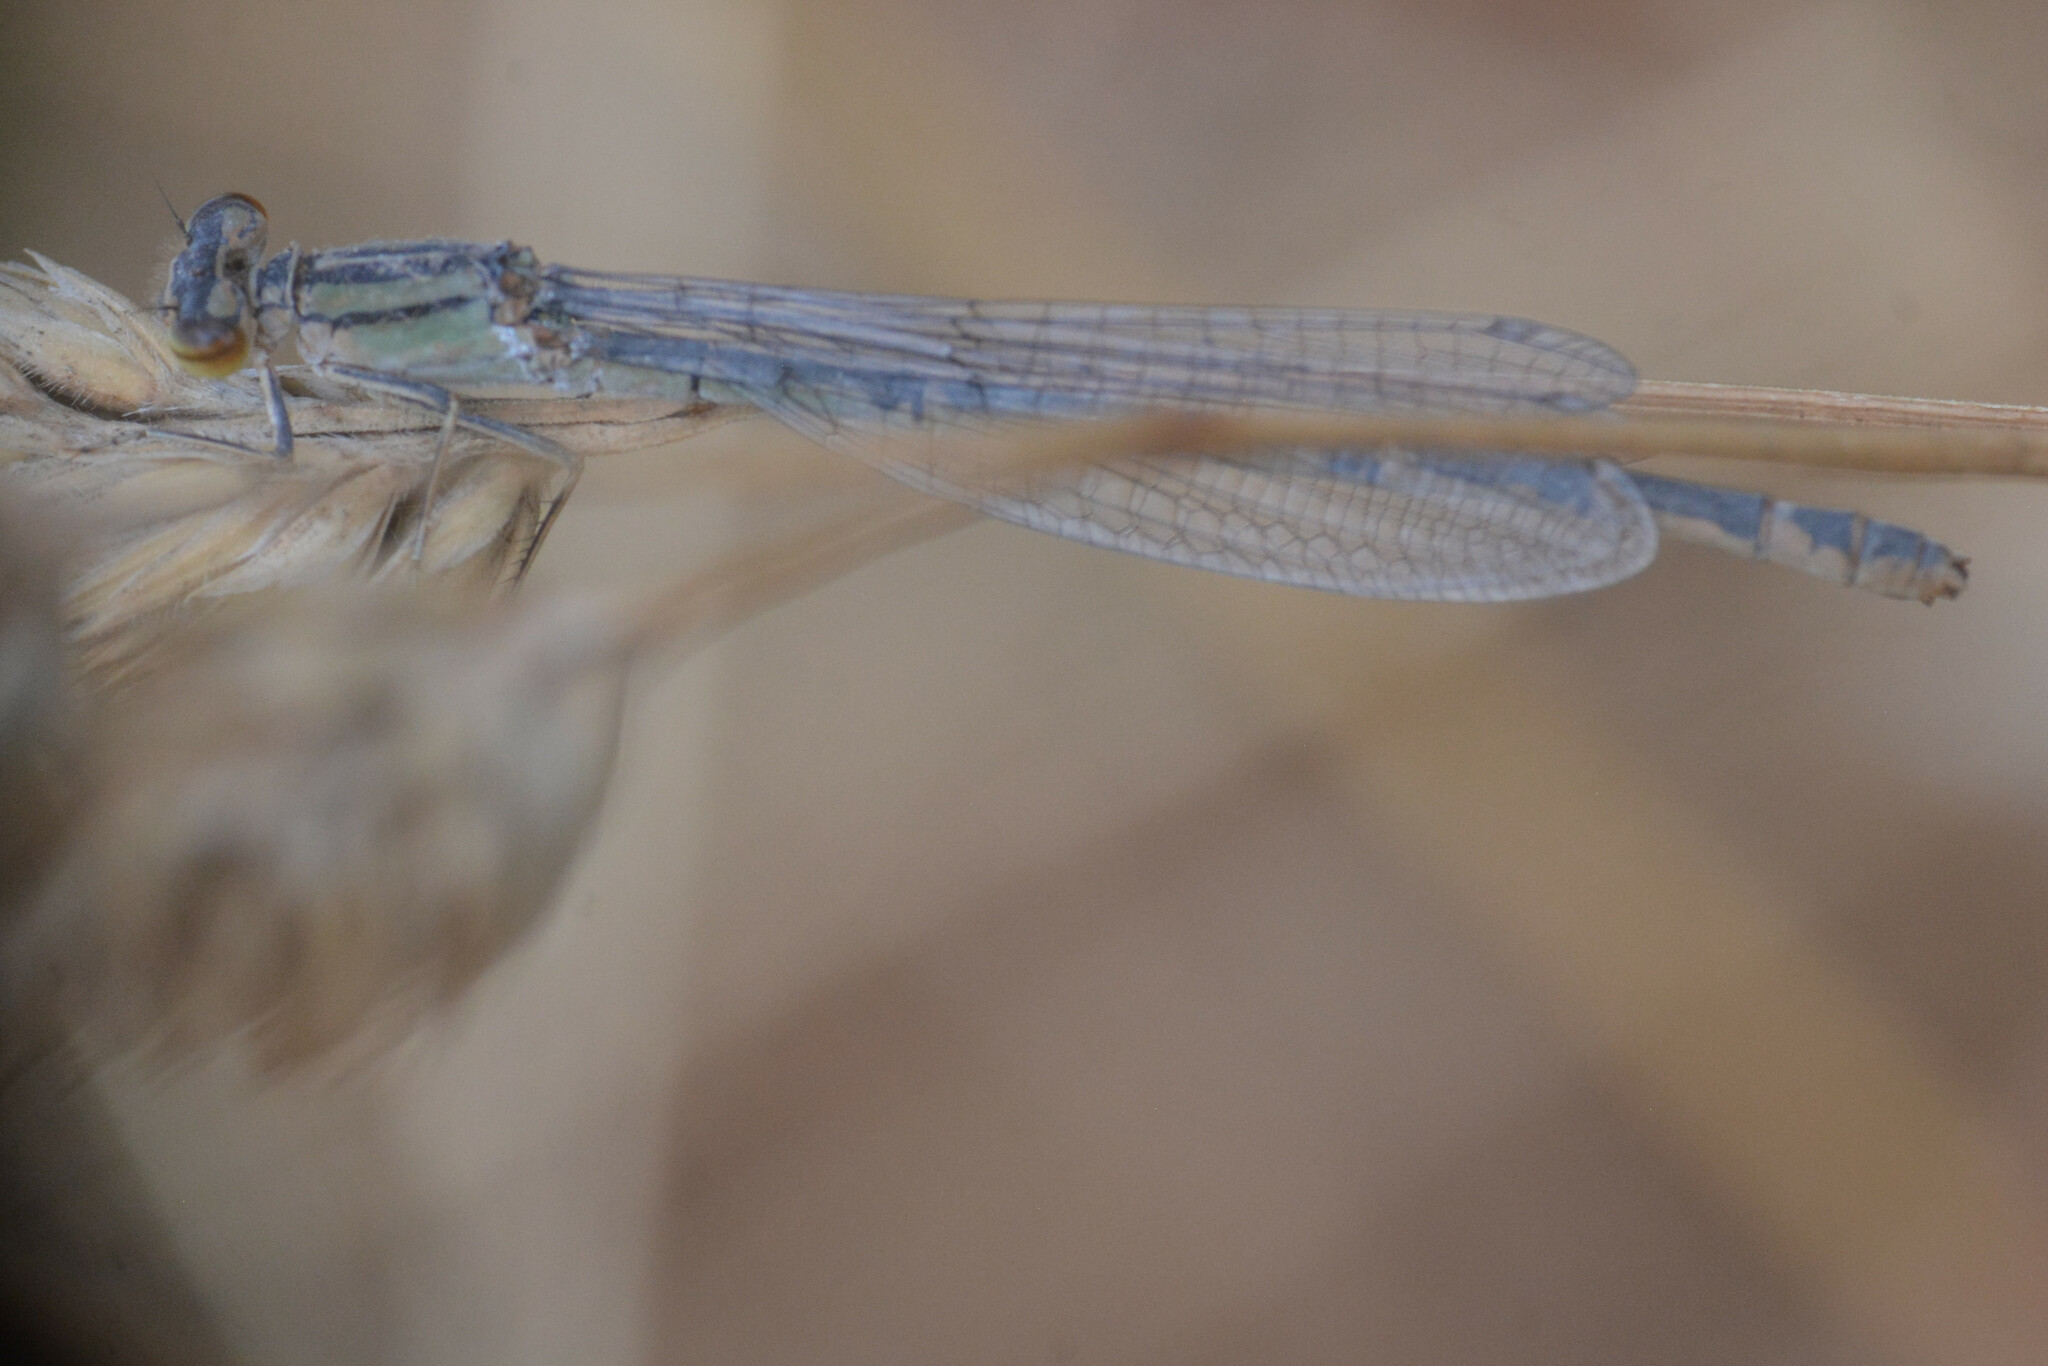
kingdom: Animalia
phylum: Arthropoda
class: Insecta
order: Odonata
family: Coenagrionidae
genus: Enallagma
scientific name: Enallagma cyathigerum
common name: Common blue damselfly
